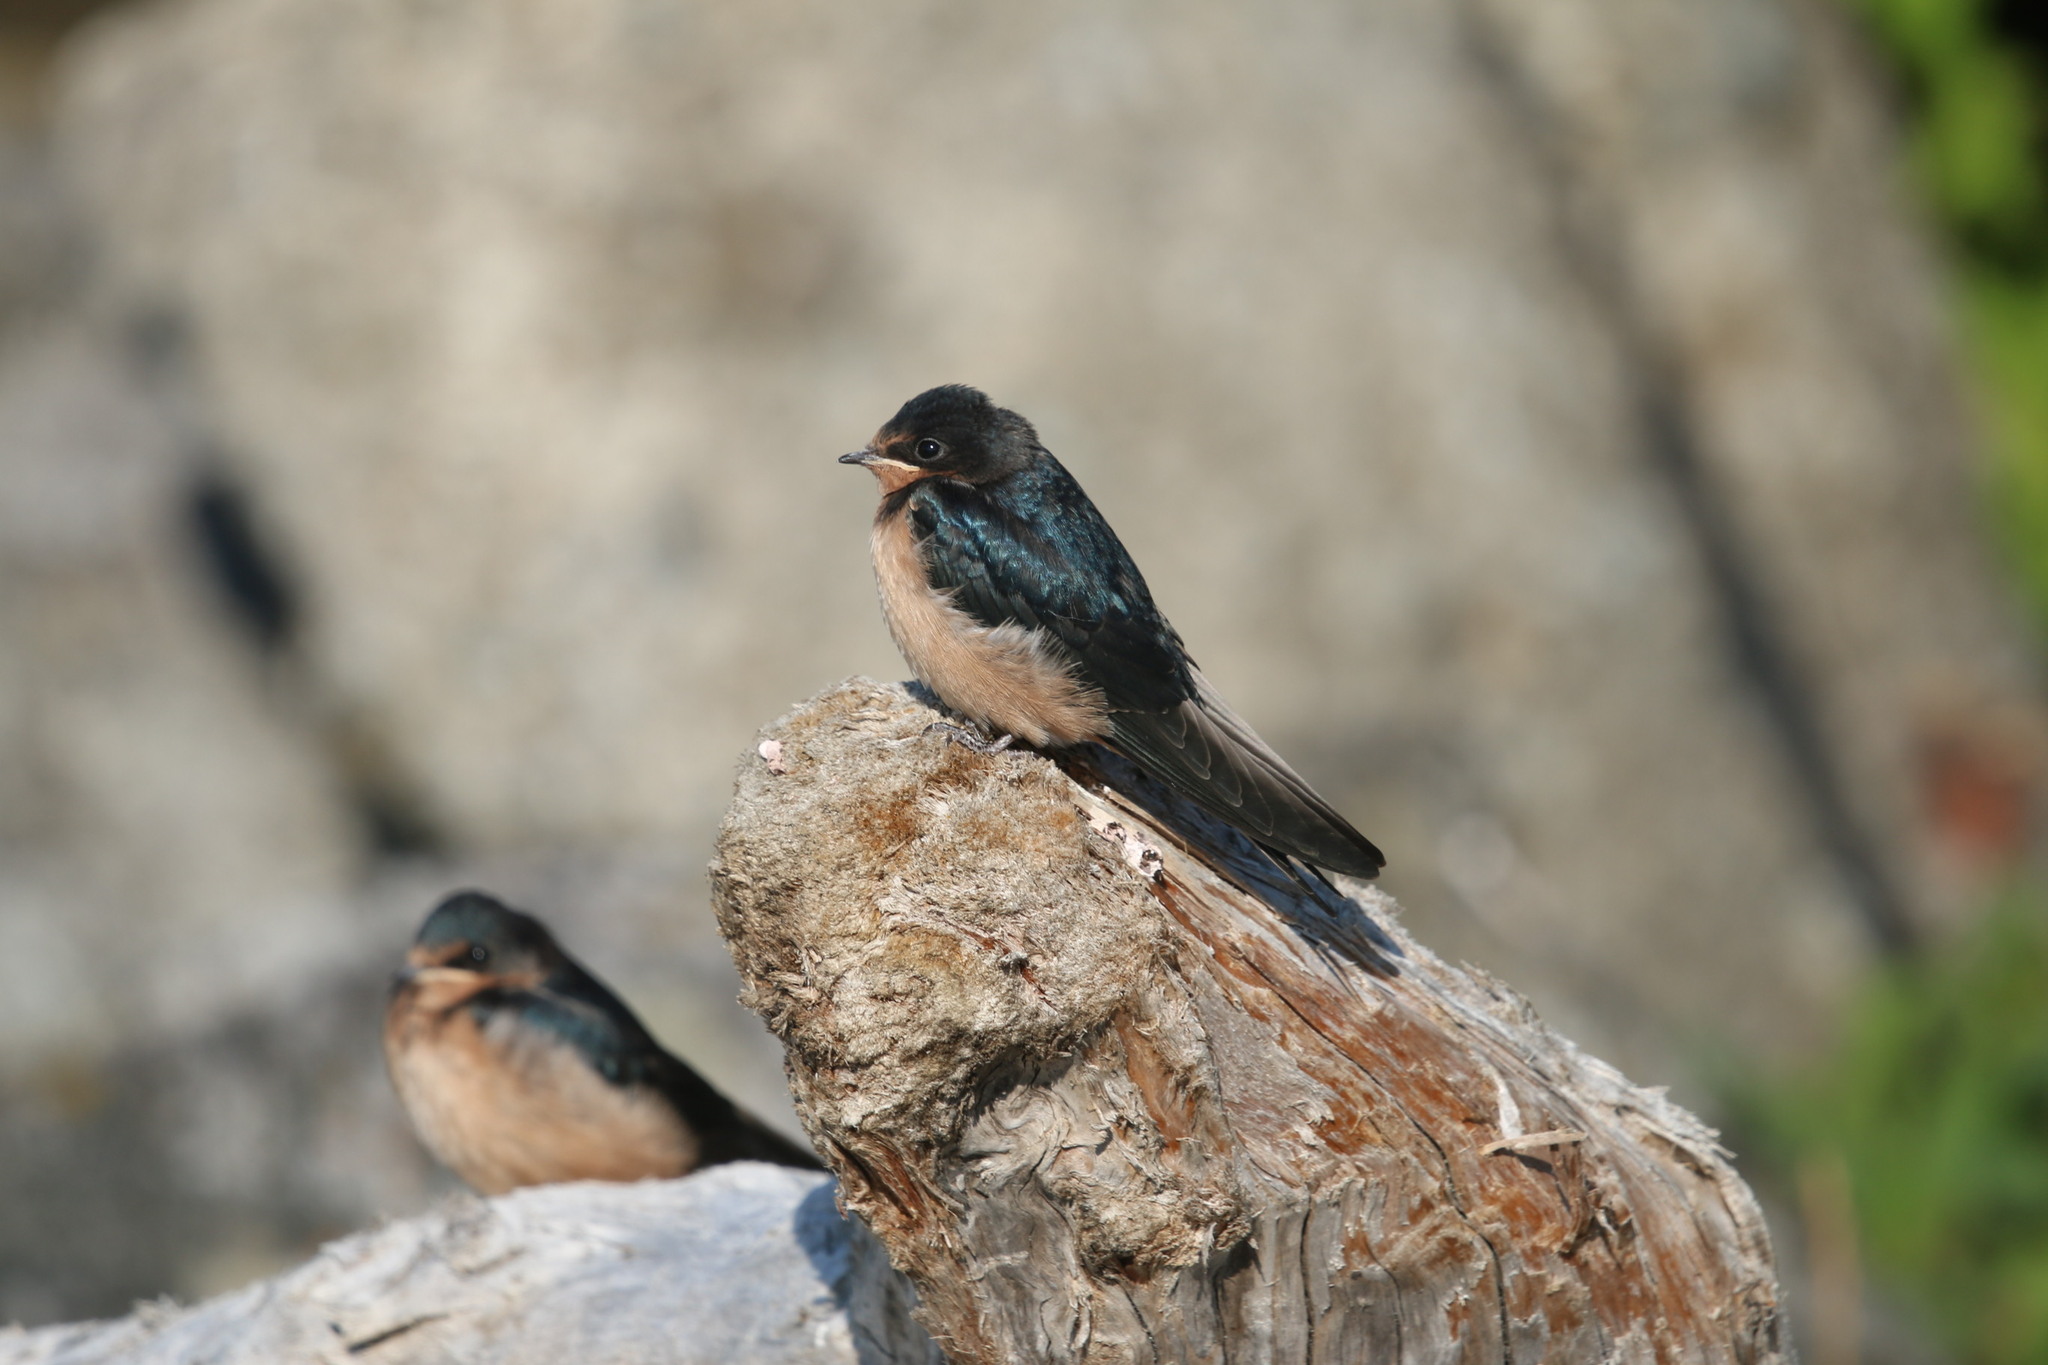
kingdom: Animalia
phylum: Chordata
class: Aves
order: Passeriformes
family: Hirundinidae
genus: Hirundo
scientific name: Hirundo rustica
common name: Barn swallow
